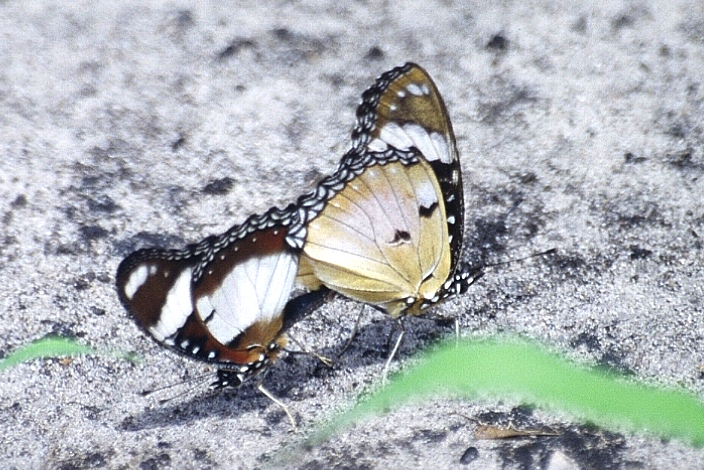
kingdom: Animalia
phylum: Arthropoda
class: Insecta
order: Lepidoptera
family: Nymphalidae
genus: Hypolimnas
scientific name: Hypolimnas misippus
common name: False plain tiger
